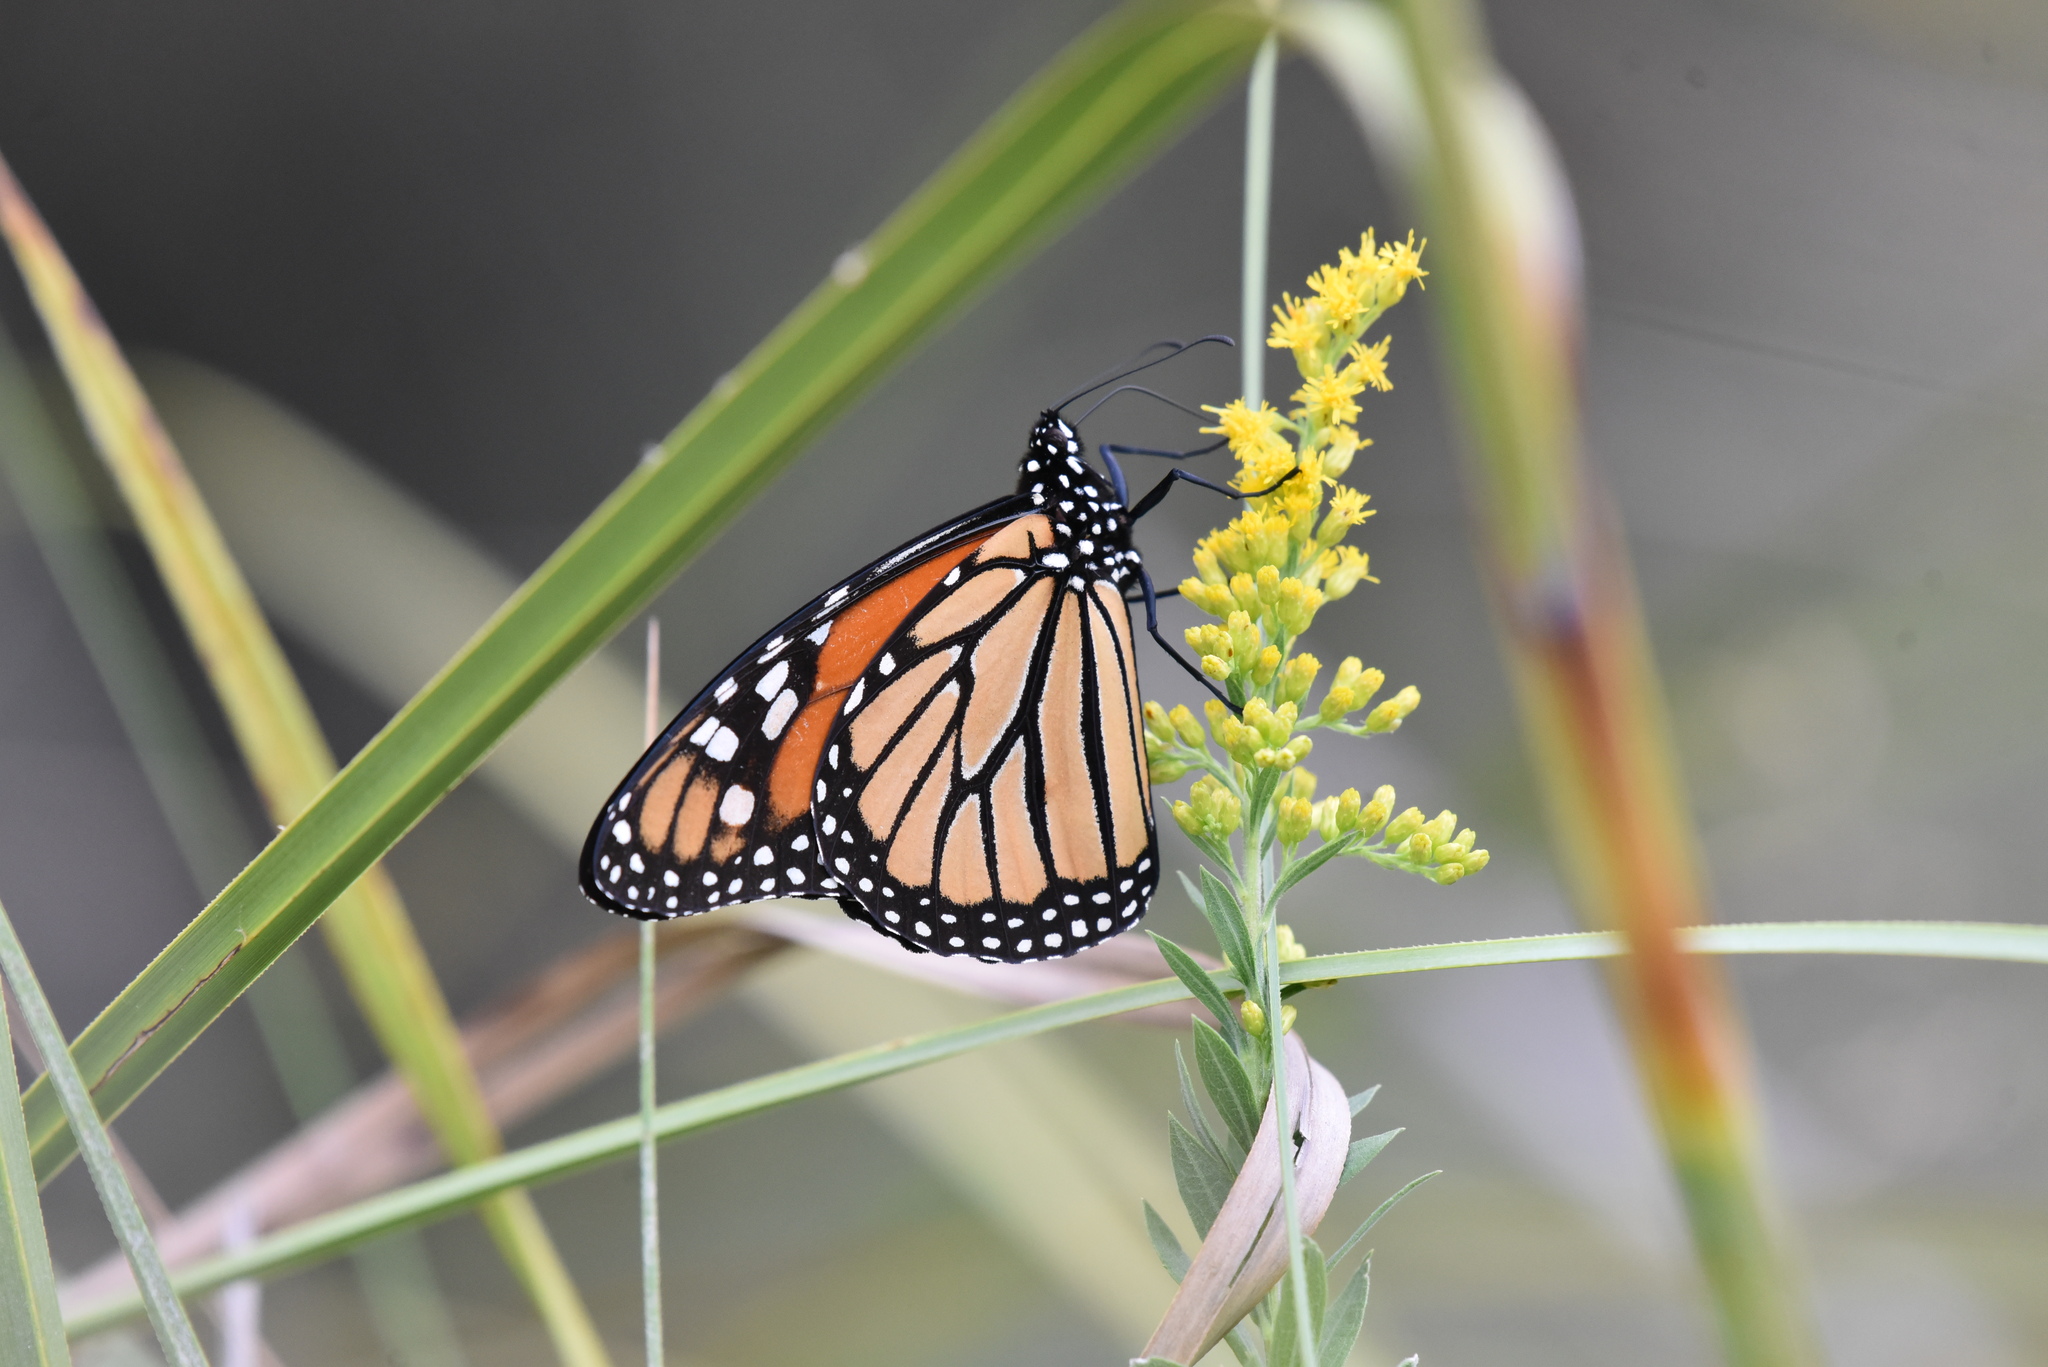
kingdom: Animalia
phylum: Arthropoda
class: Insecta
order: Lepidoptera
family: Nymphalidae
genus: Danaus
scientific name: Danaus plexippus
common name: Monarch
